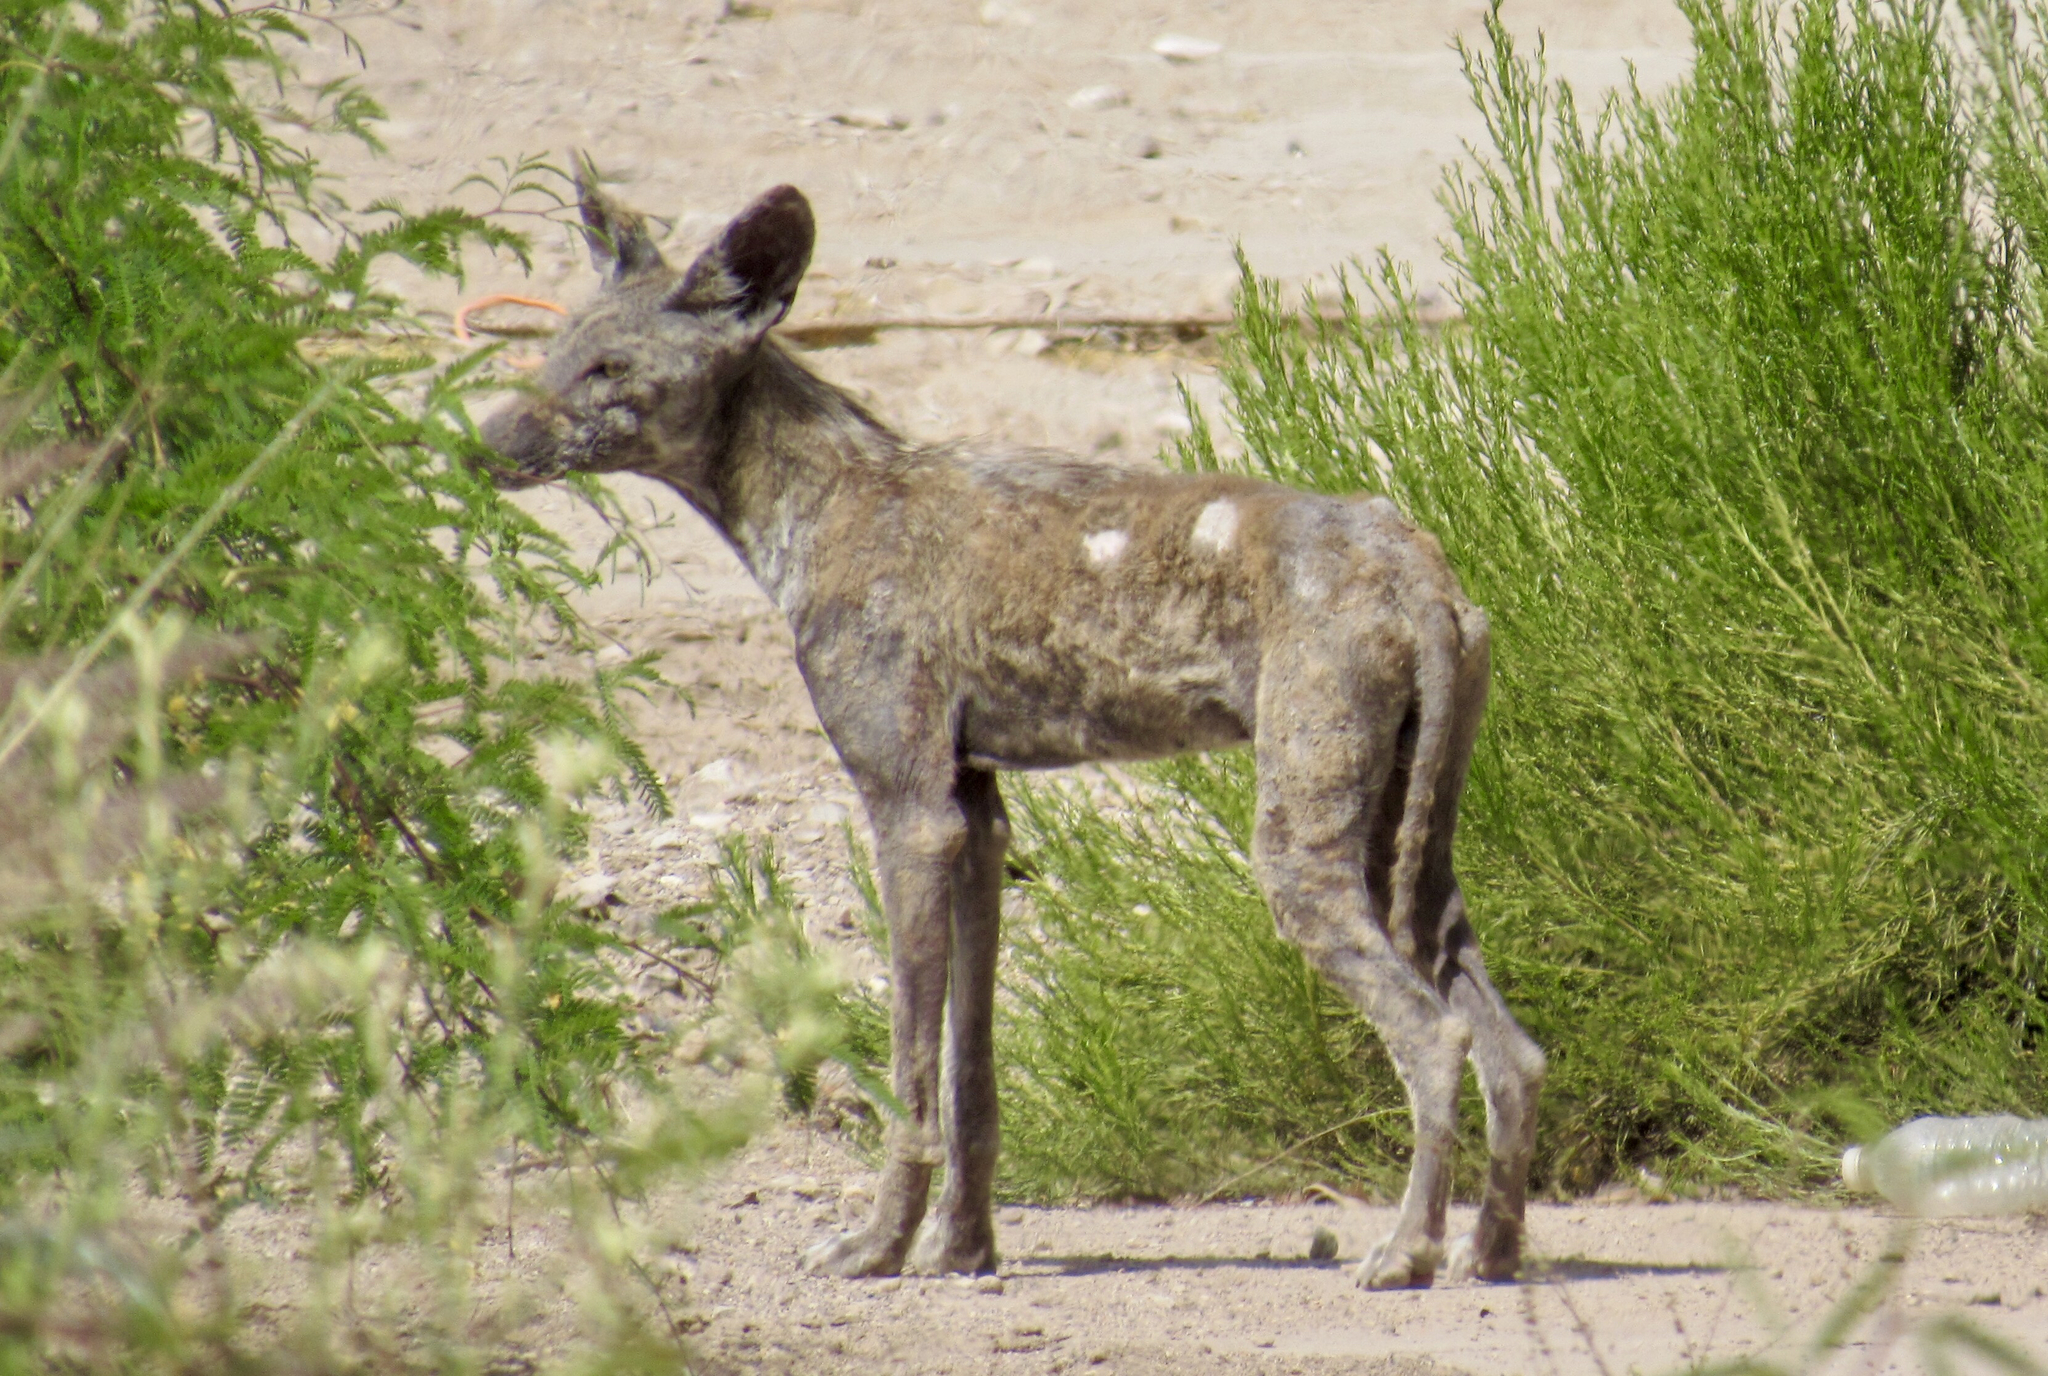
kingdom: Animalia
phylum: Chordata
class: Mammalia
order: Carnivora
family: Canidae
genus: Canis
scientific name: Canis latrans
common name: Coyote
